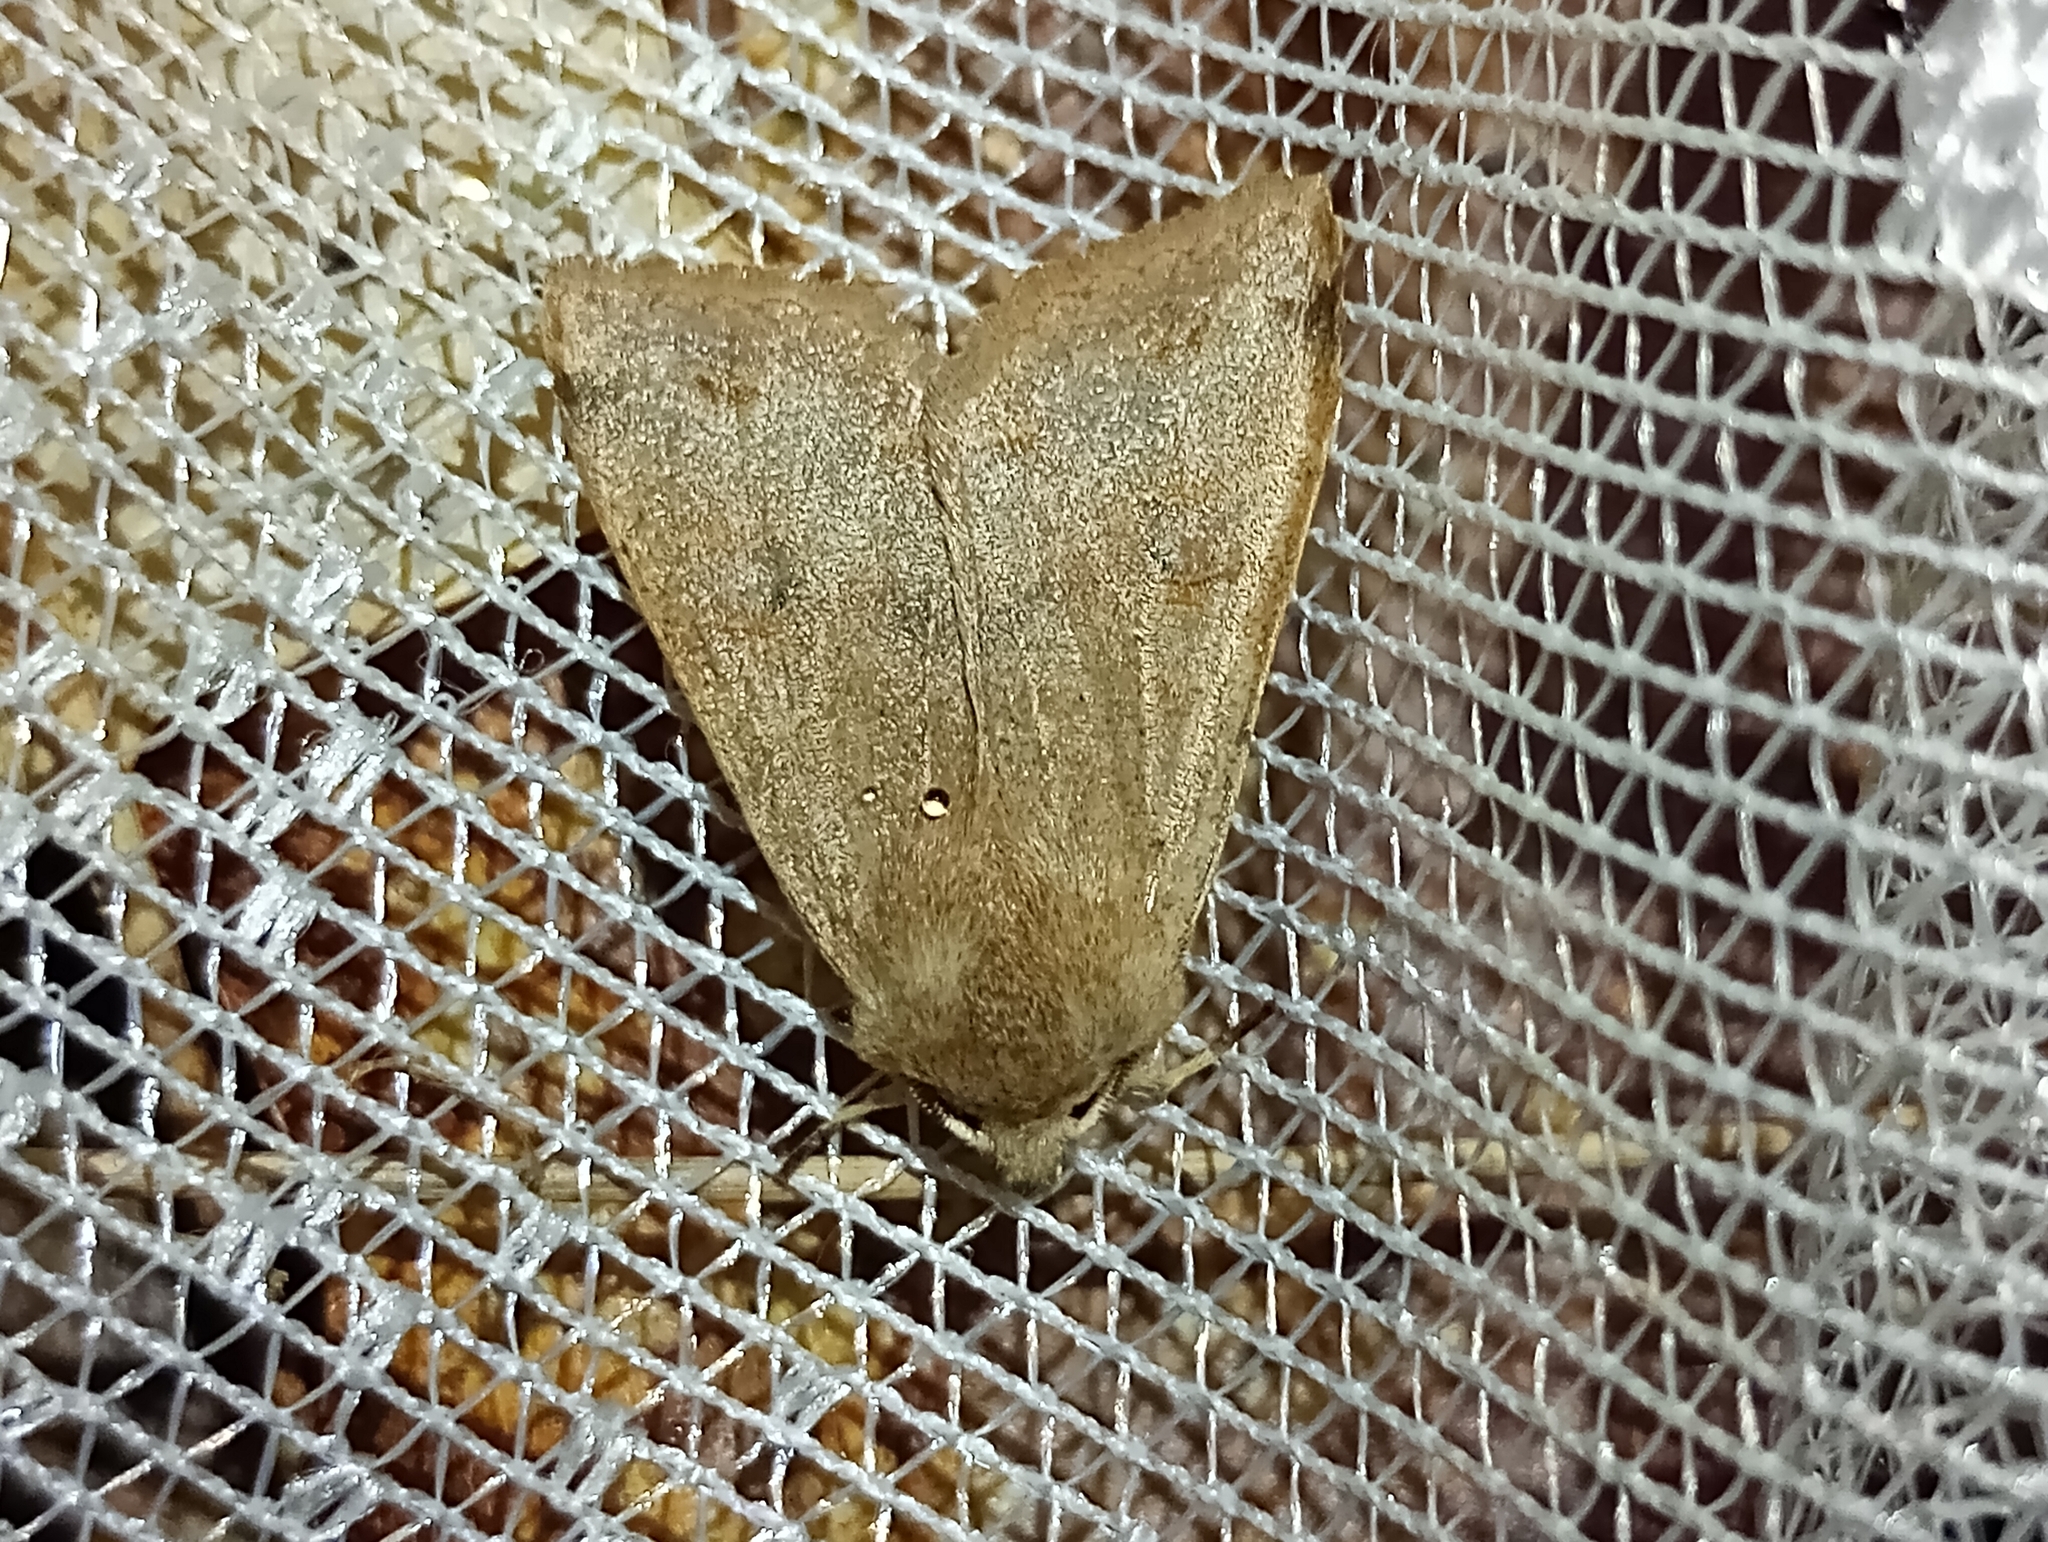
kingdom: Animalia
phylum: Arthropoda
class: Insecta
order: Lepidoptera
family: Noctuidae
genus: Anorthoa
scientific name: Anorthoa munda
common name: Twin-spotted quaker
